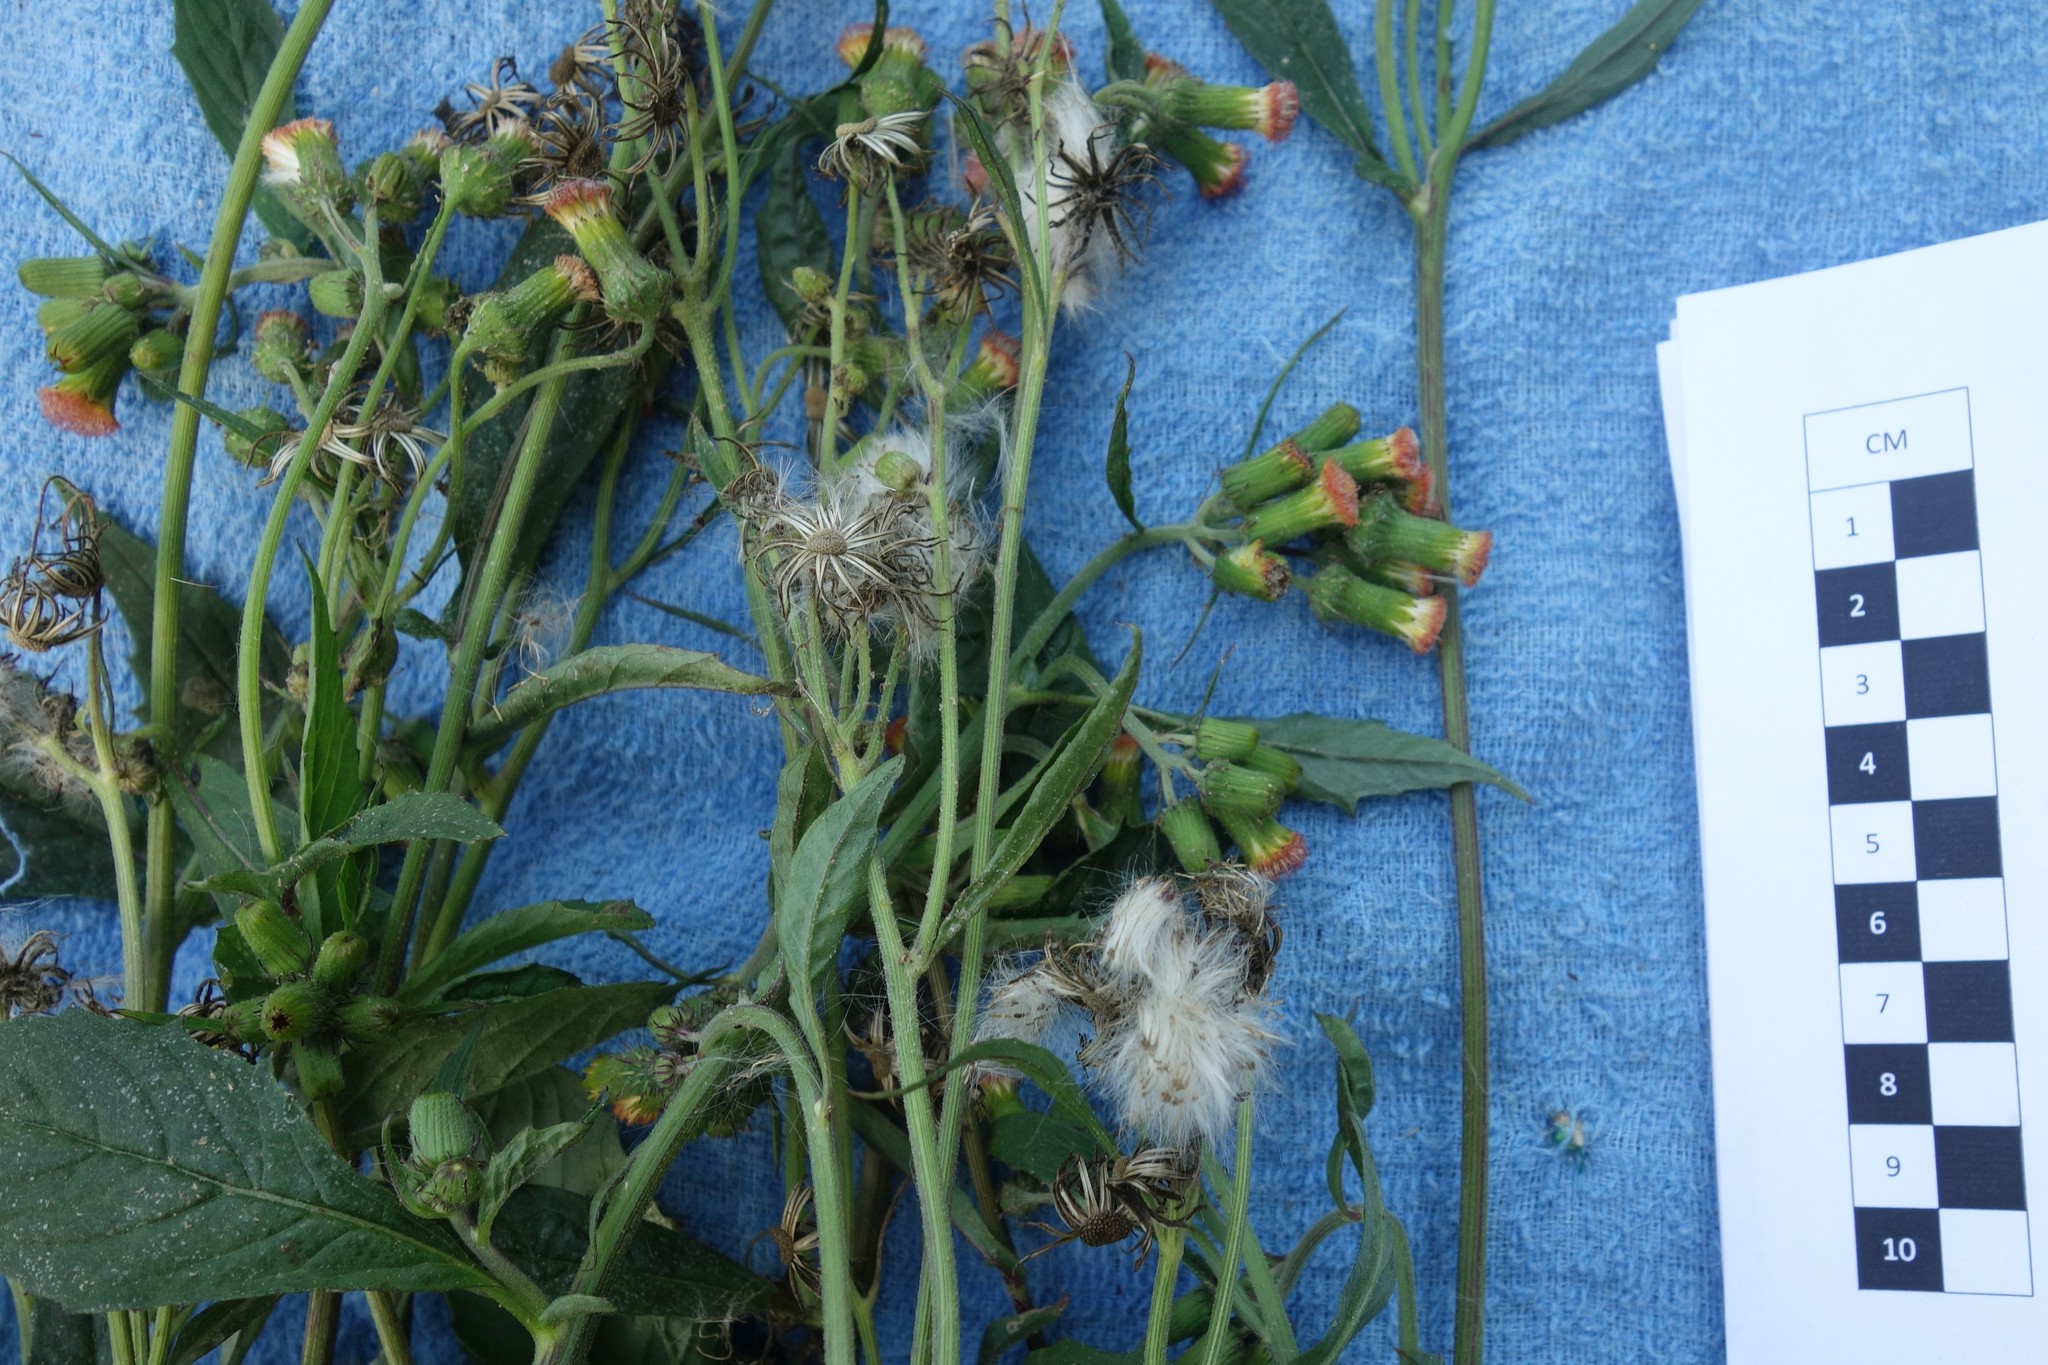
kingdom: Plantae
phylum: Tracheophyta
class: Magnoliopsida
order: Asterales
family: Asteraceae
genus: Crassocephalum
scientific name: Crassocephalum crepidioides
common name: Redflower ragleaf
